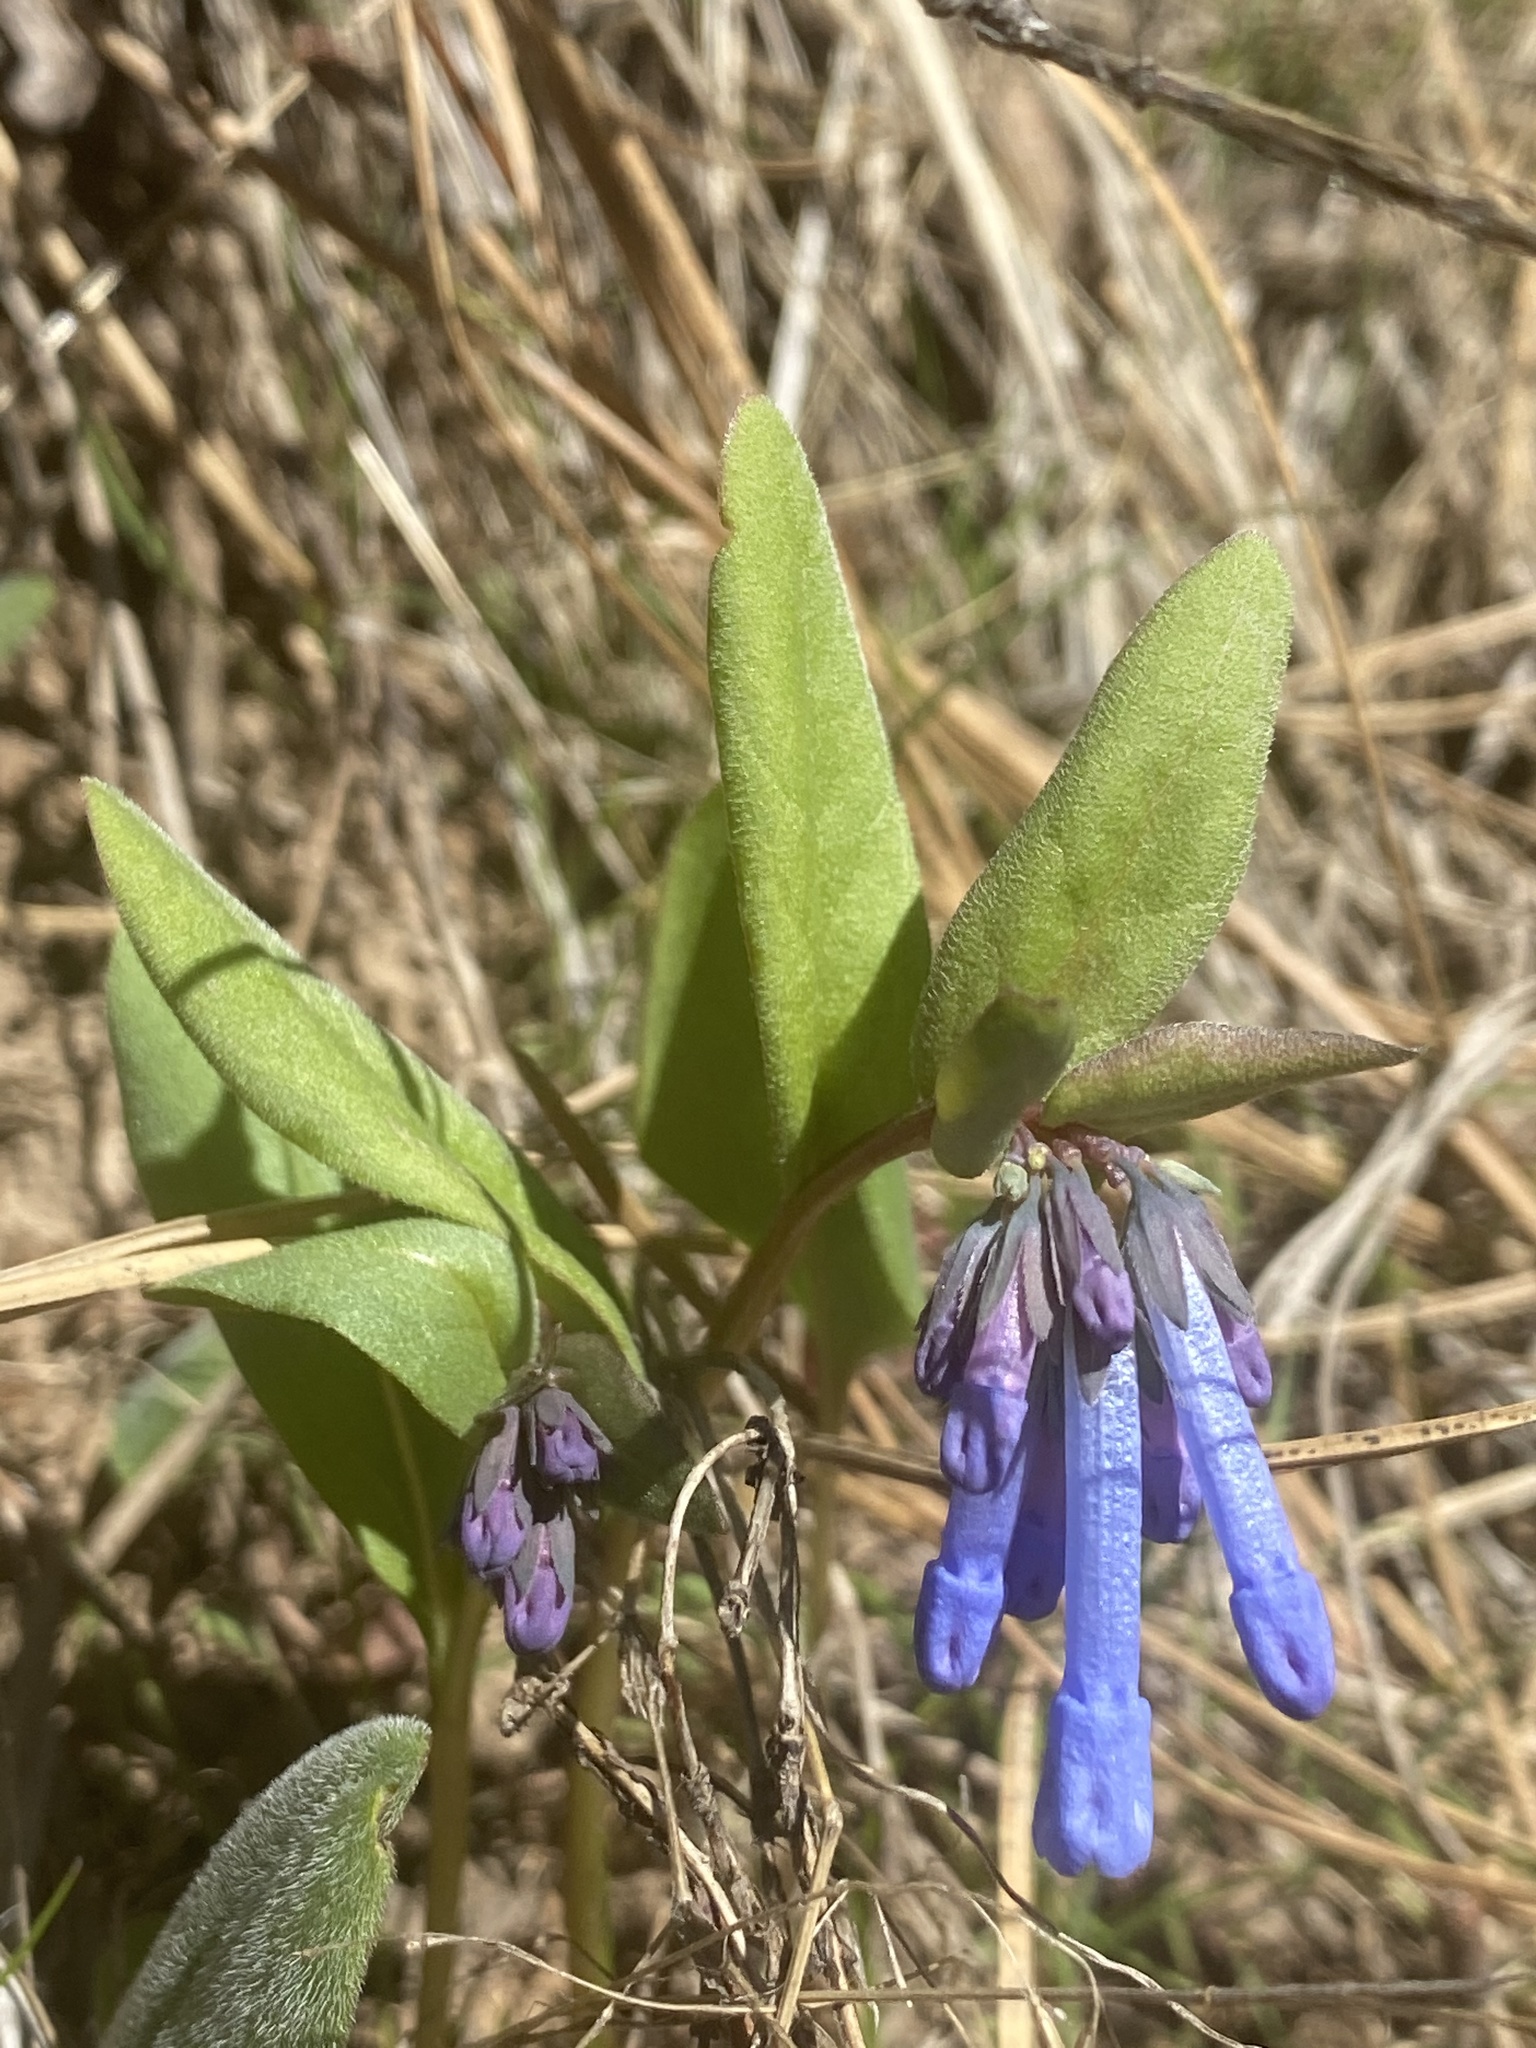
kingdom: Plantae
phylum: Tracheophyta
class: Magnoliopsida
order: Boraginales
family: Boraginaceae
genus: Mertensia
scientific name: Mertensia longiflora
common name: Large-flowered bluebells
